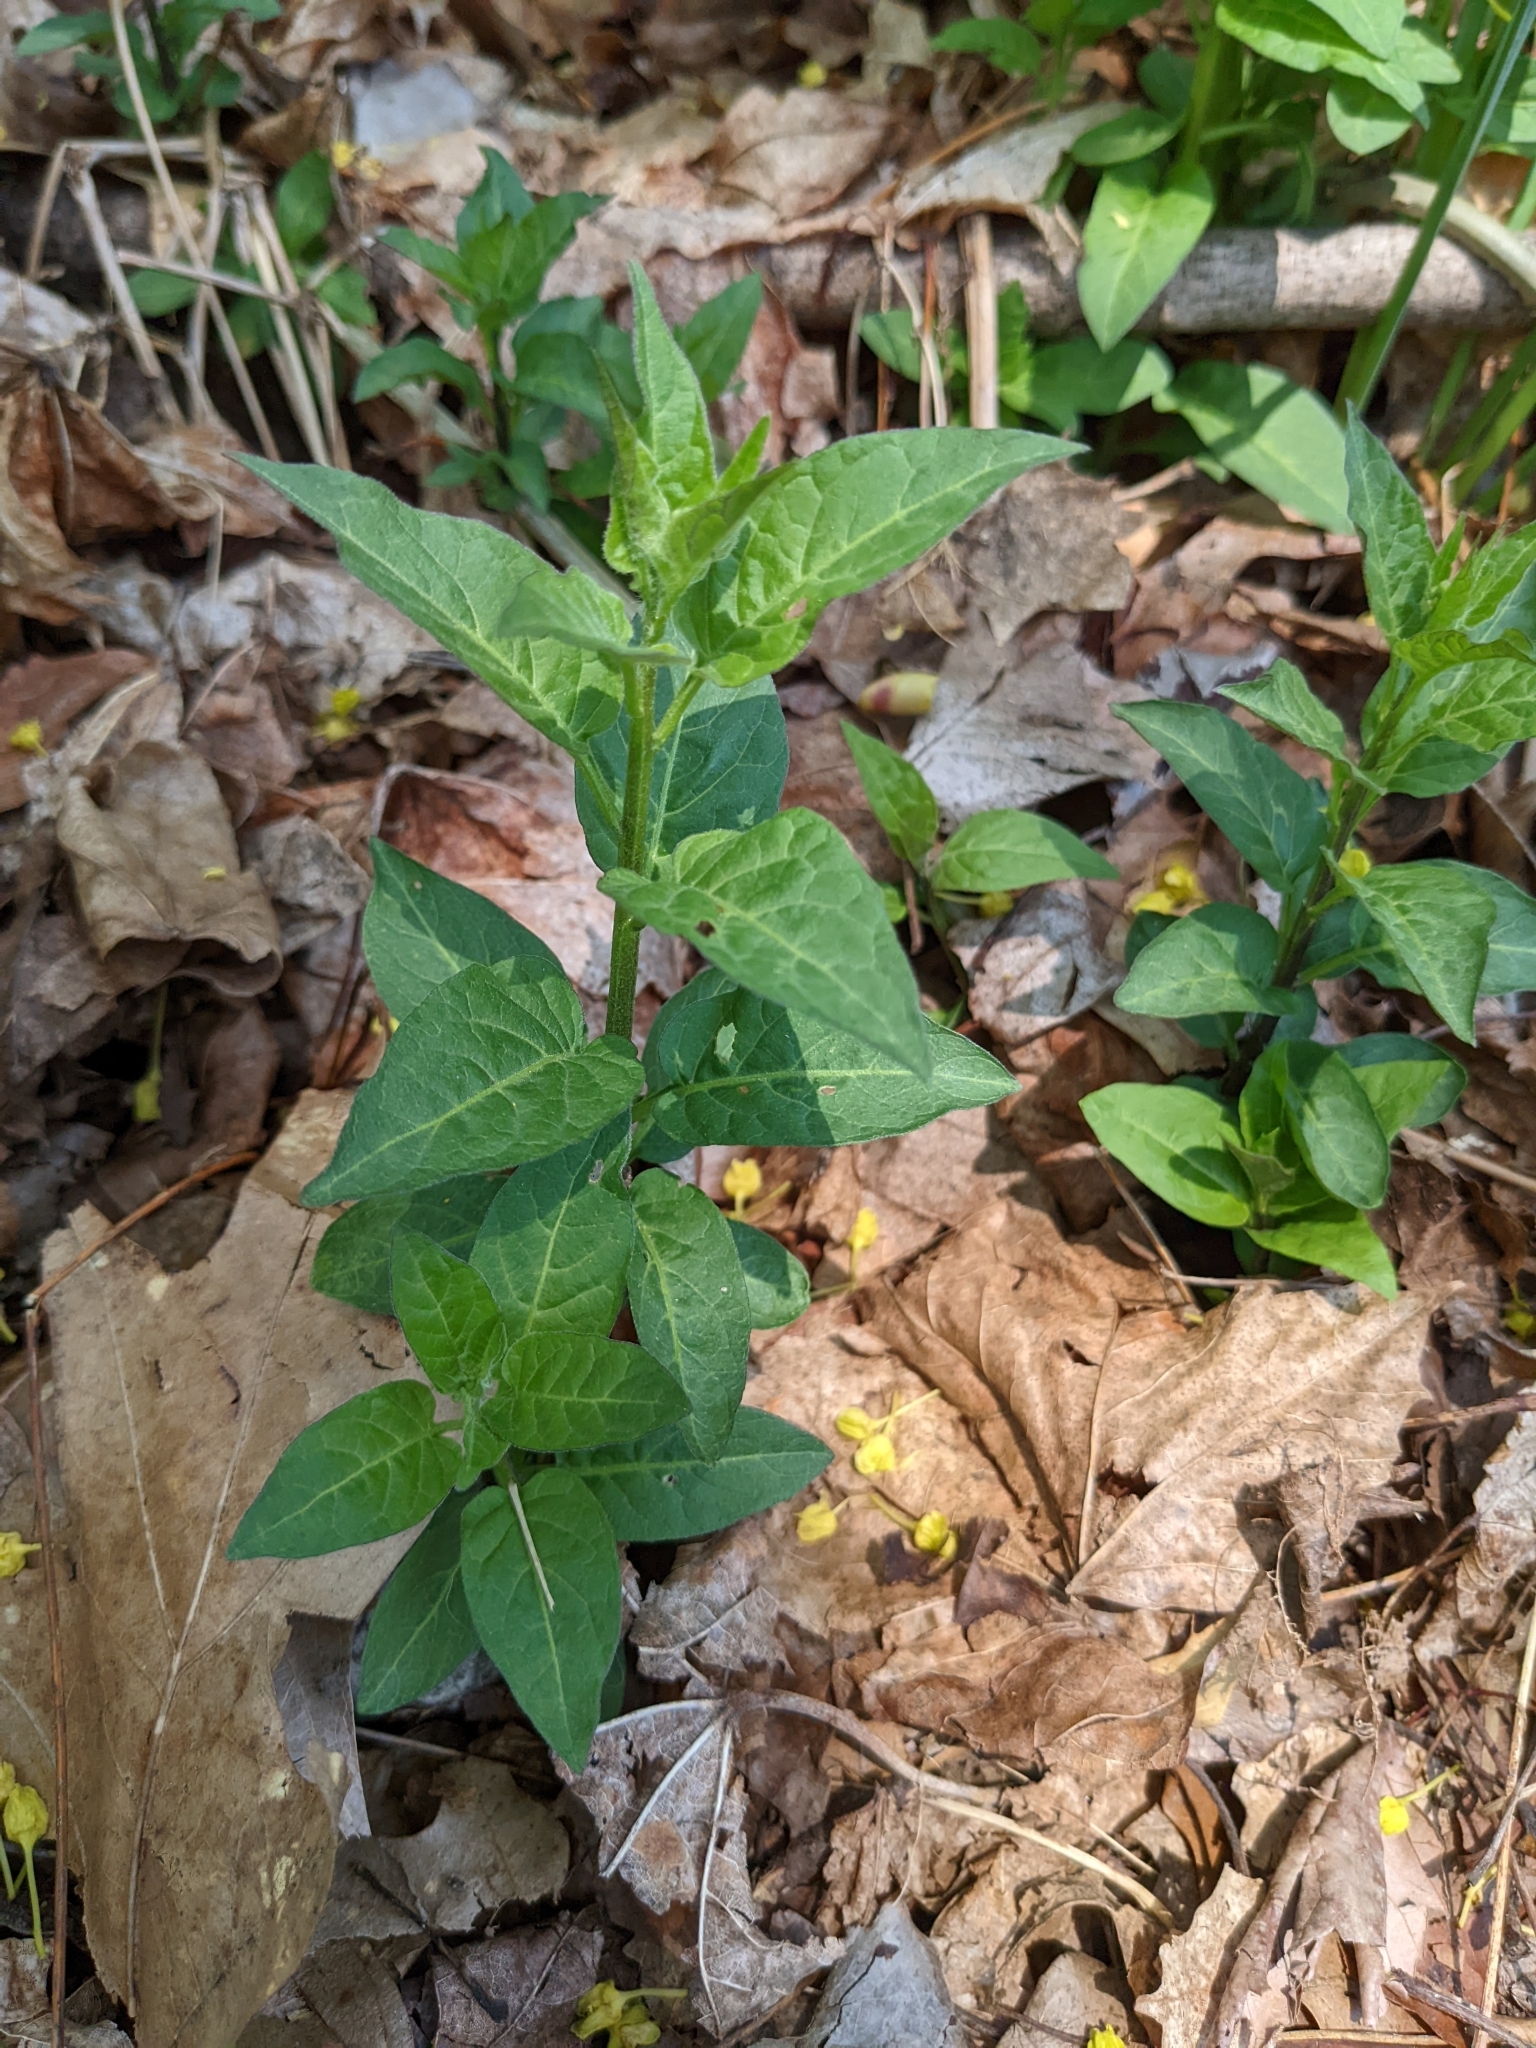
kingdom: Plantae
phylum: Tracheophyta
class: Magnoliopsida
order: Solanales
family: Solanaceae
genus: Solanum
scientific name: Solanum dulcamara
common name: Climbing nightshade
